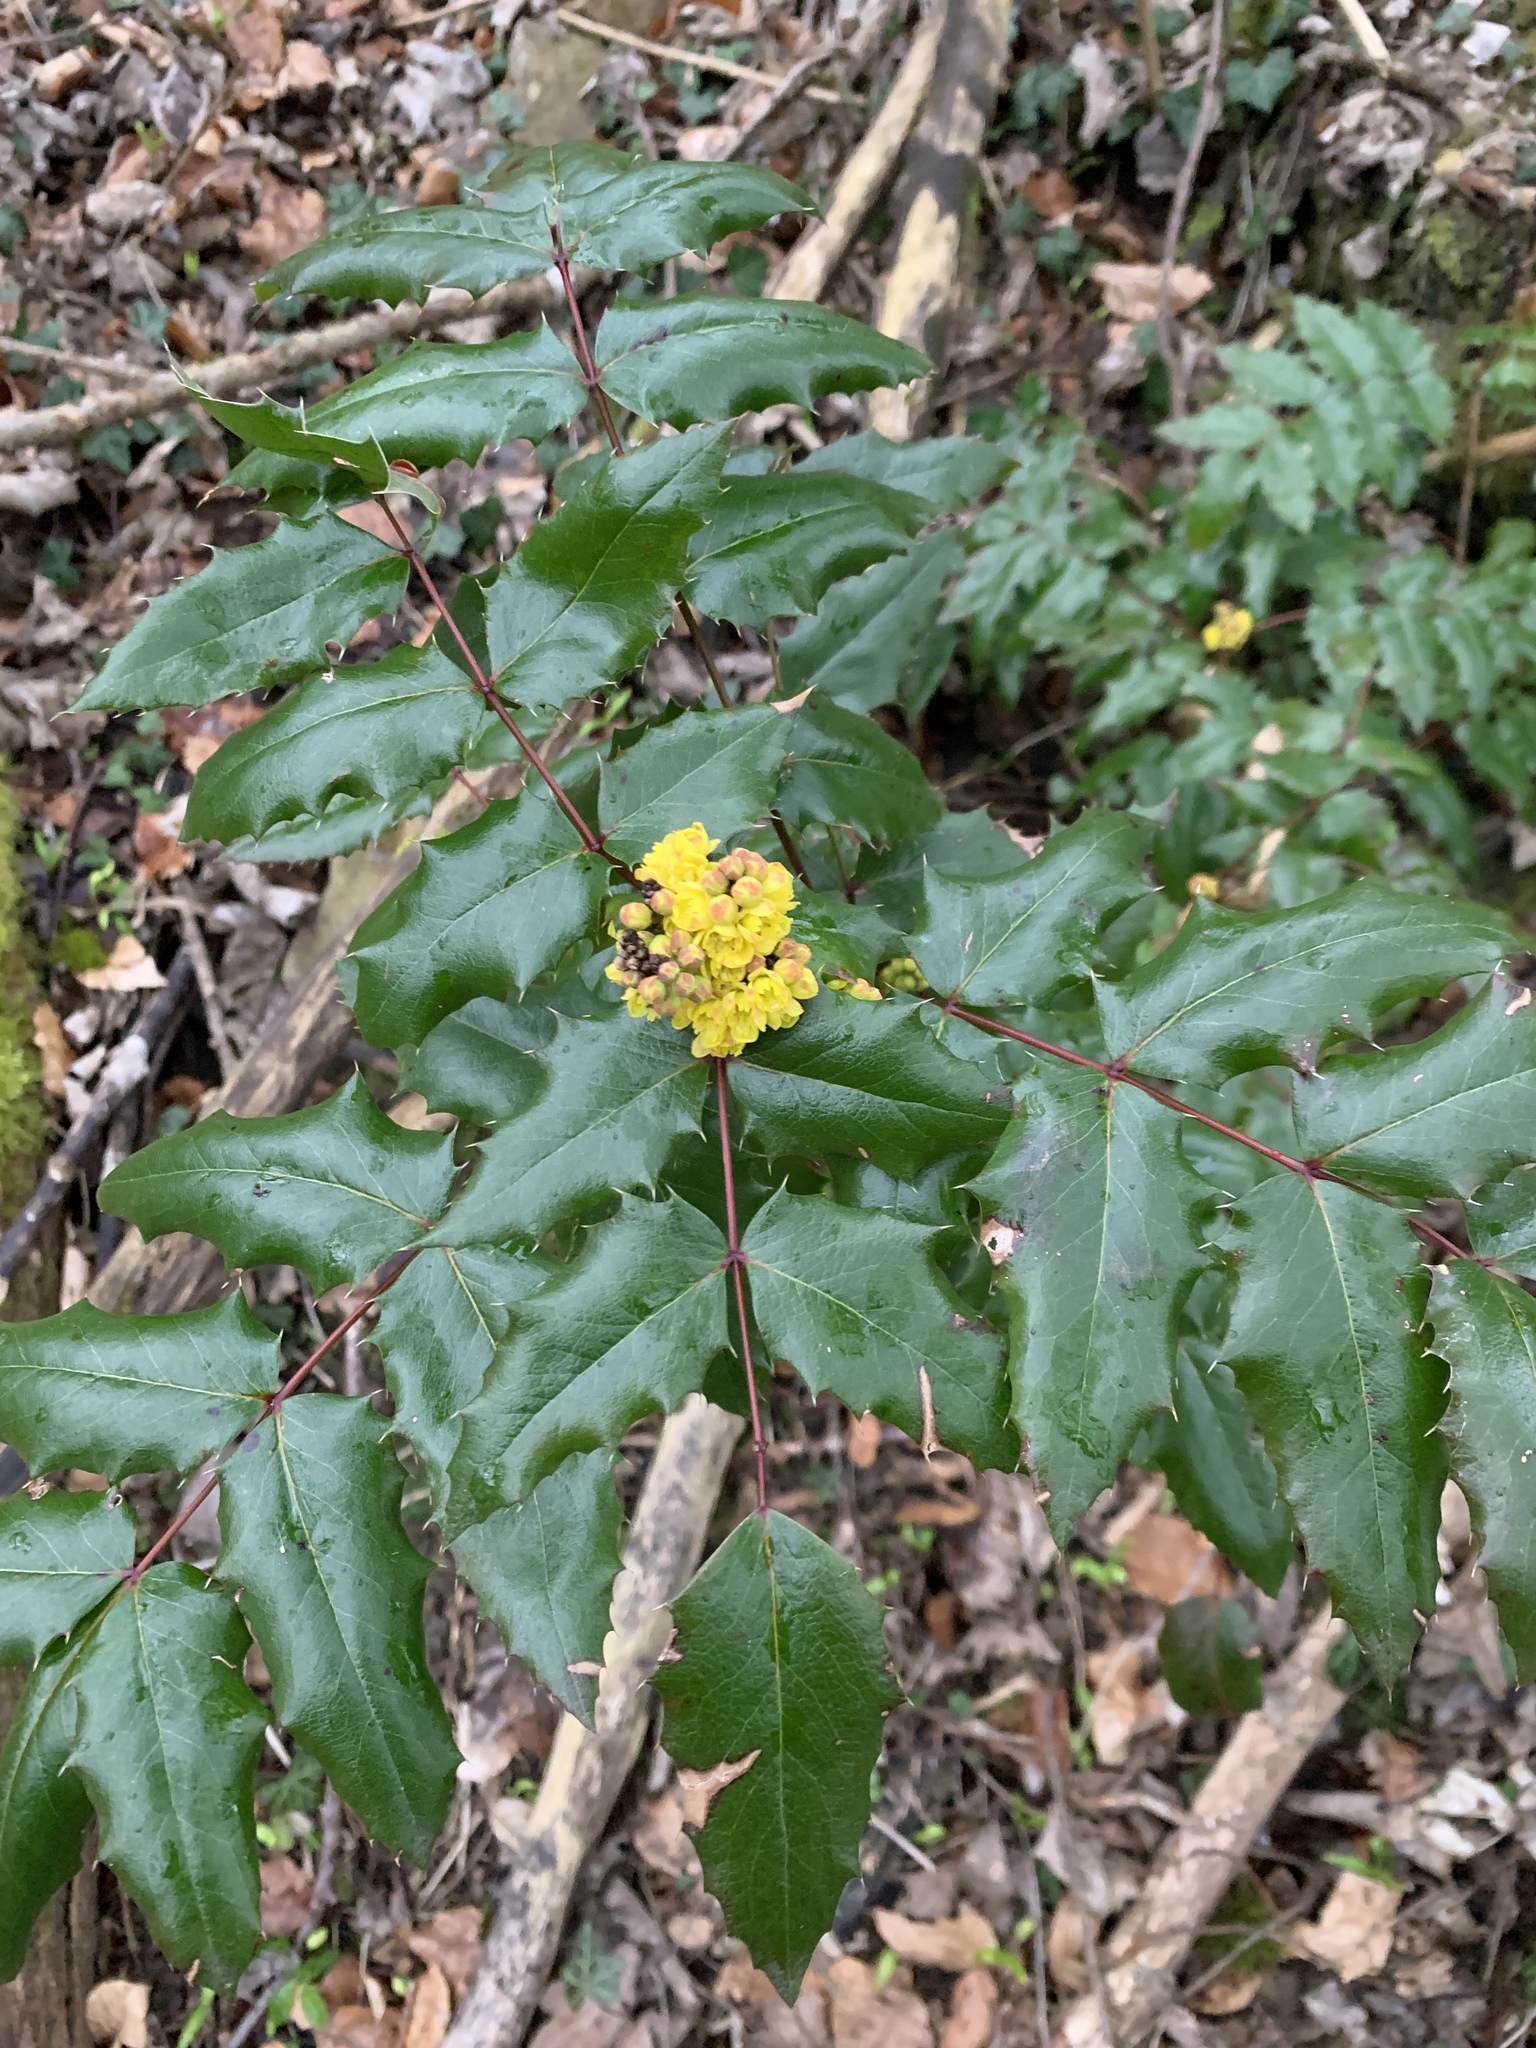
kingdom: Plantae
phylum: Tracheophyta
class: Magnoliopsida
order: Ranunculales
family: Berberidaceae
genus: Mahonia
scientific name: Mahonia aquifolium
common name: Oregon-grape
